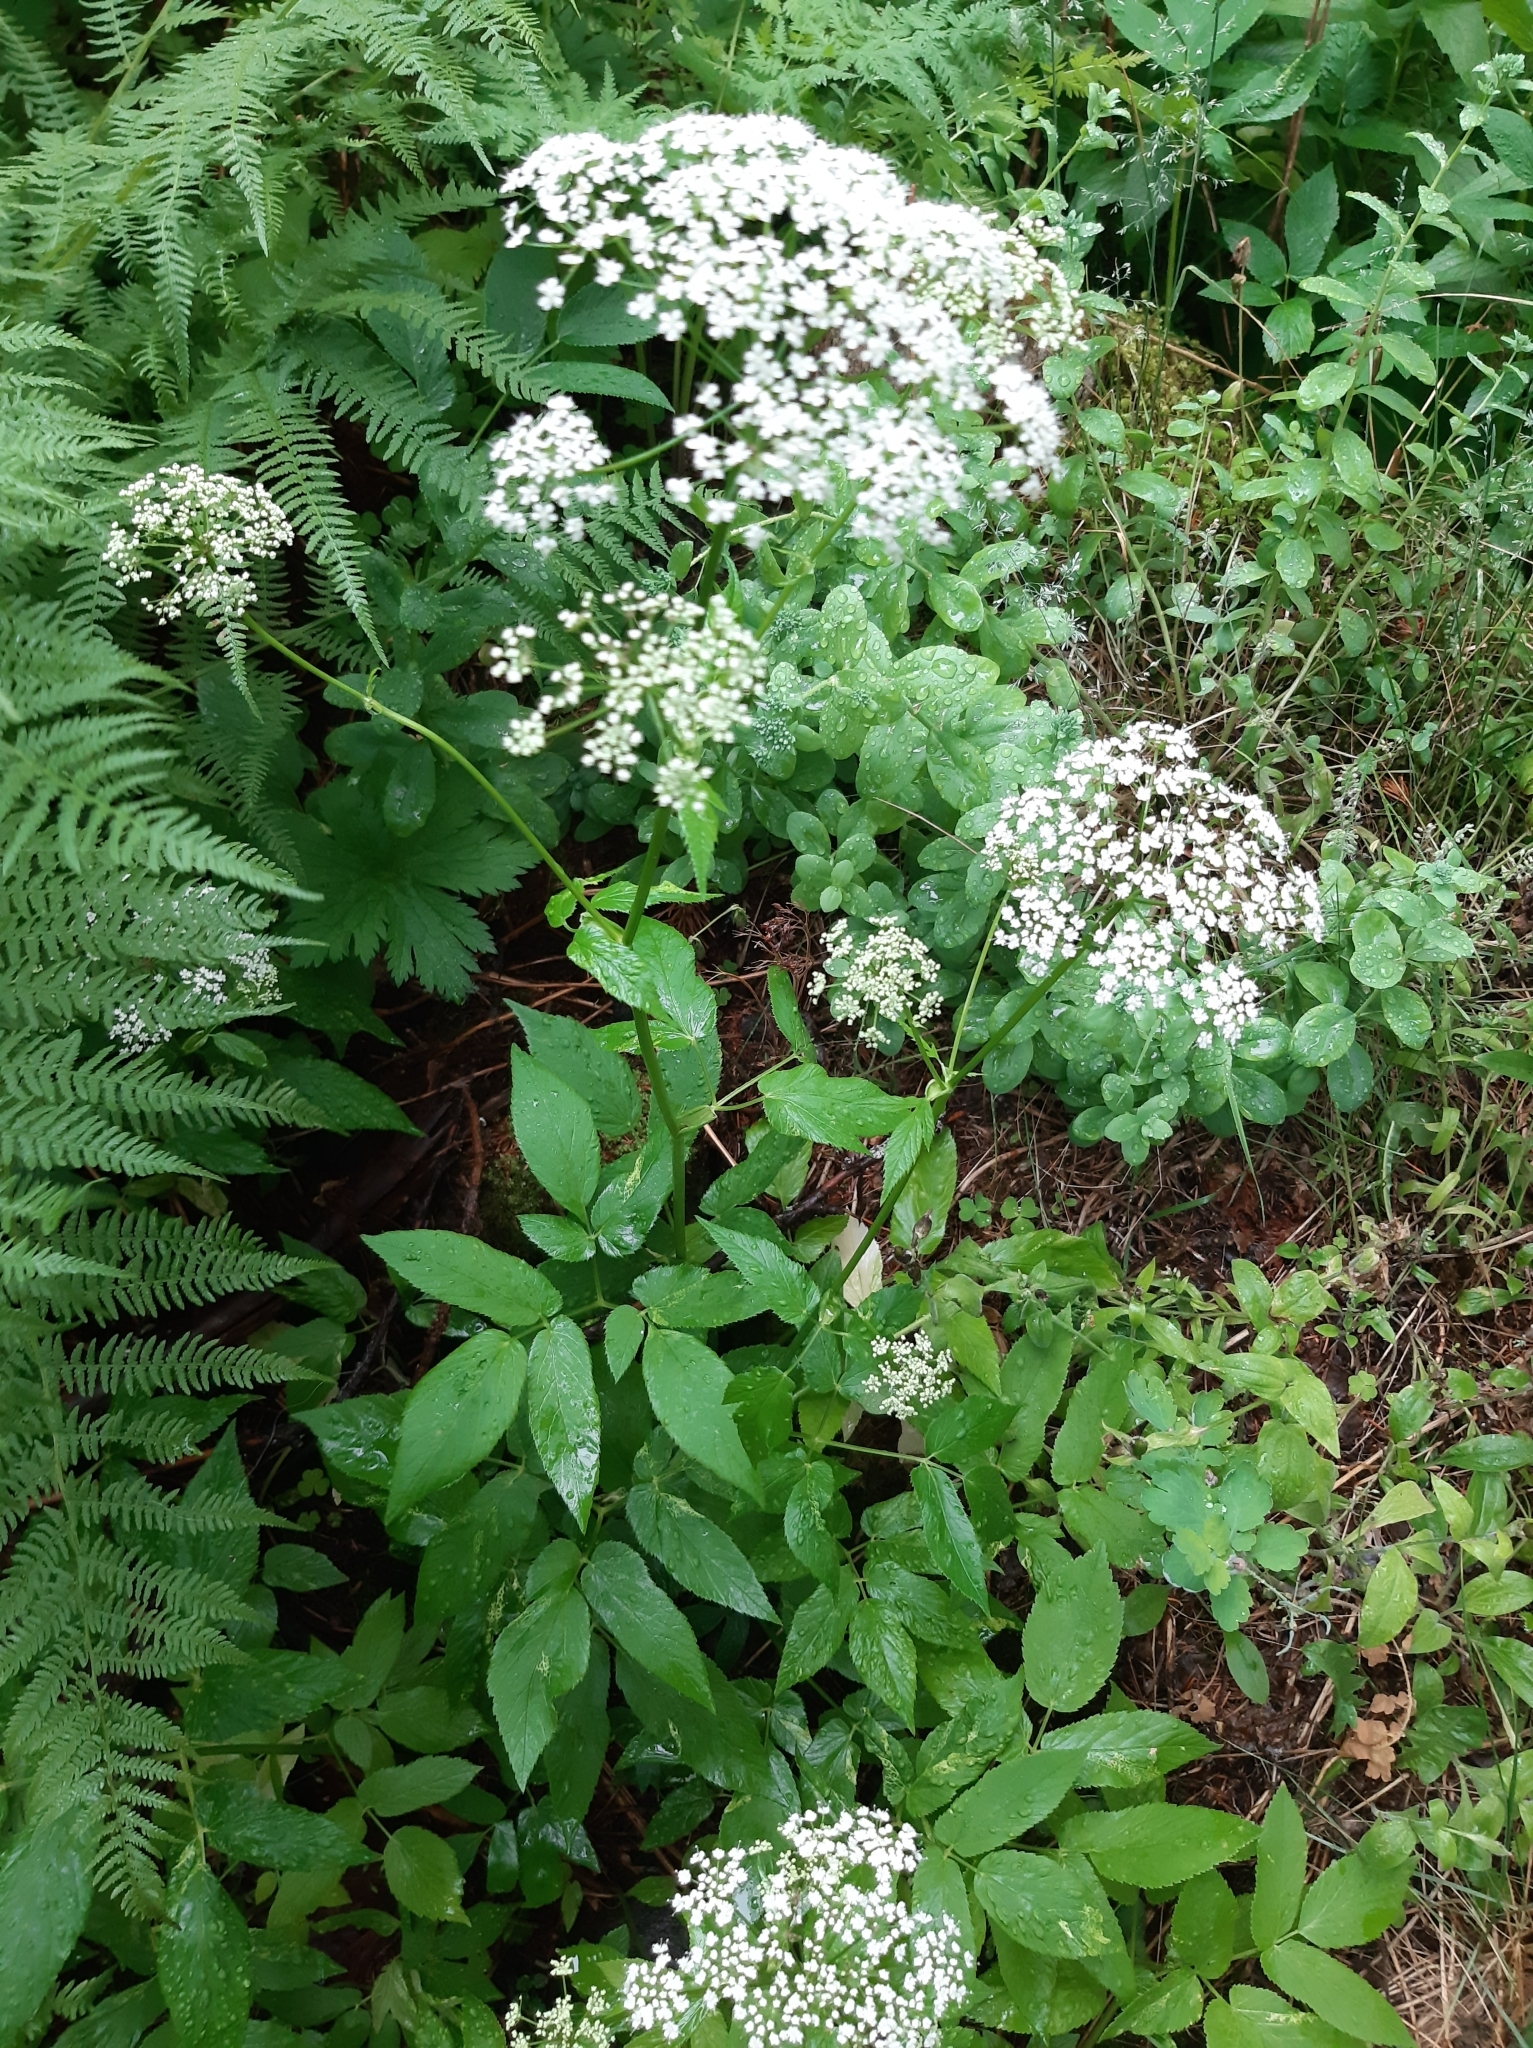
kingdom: Plantae
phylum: Tracheophyta
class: Magnoliopsida
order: Apiales
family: Apiaceae
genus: Aegopodium
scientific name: Aegopodium podagraria
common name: Ground-elder
